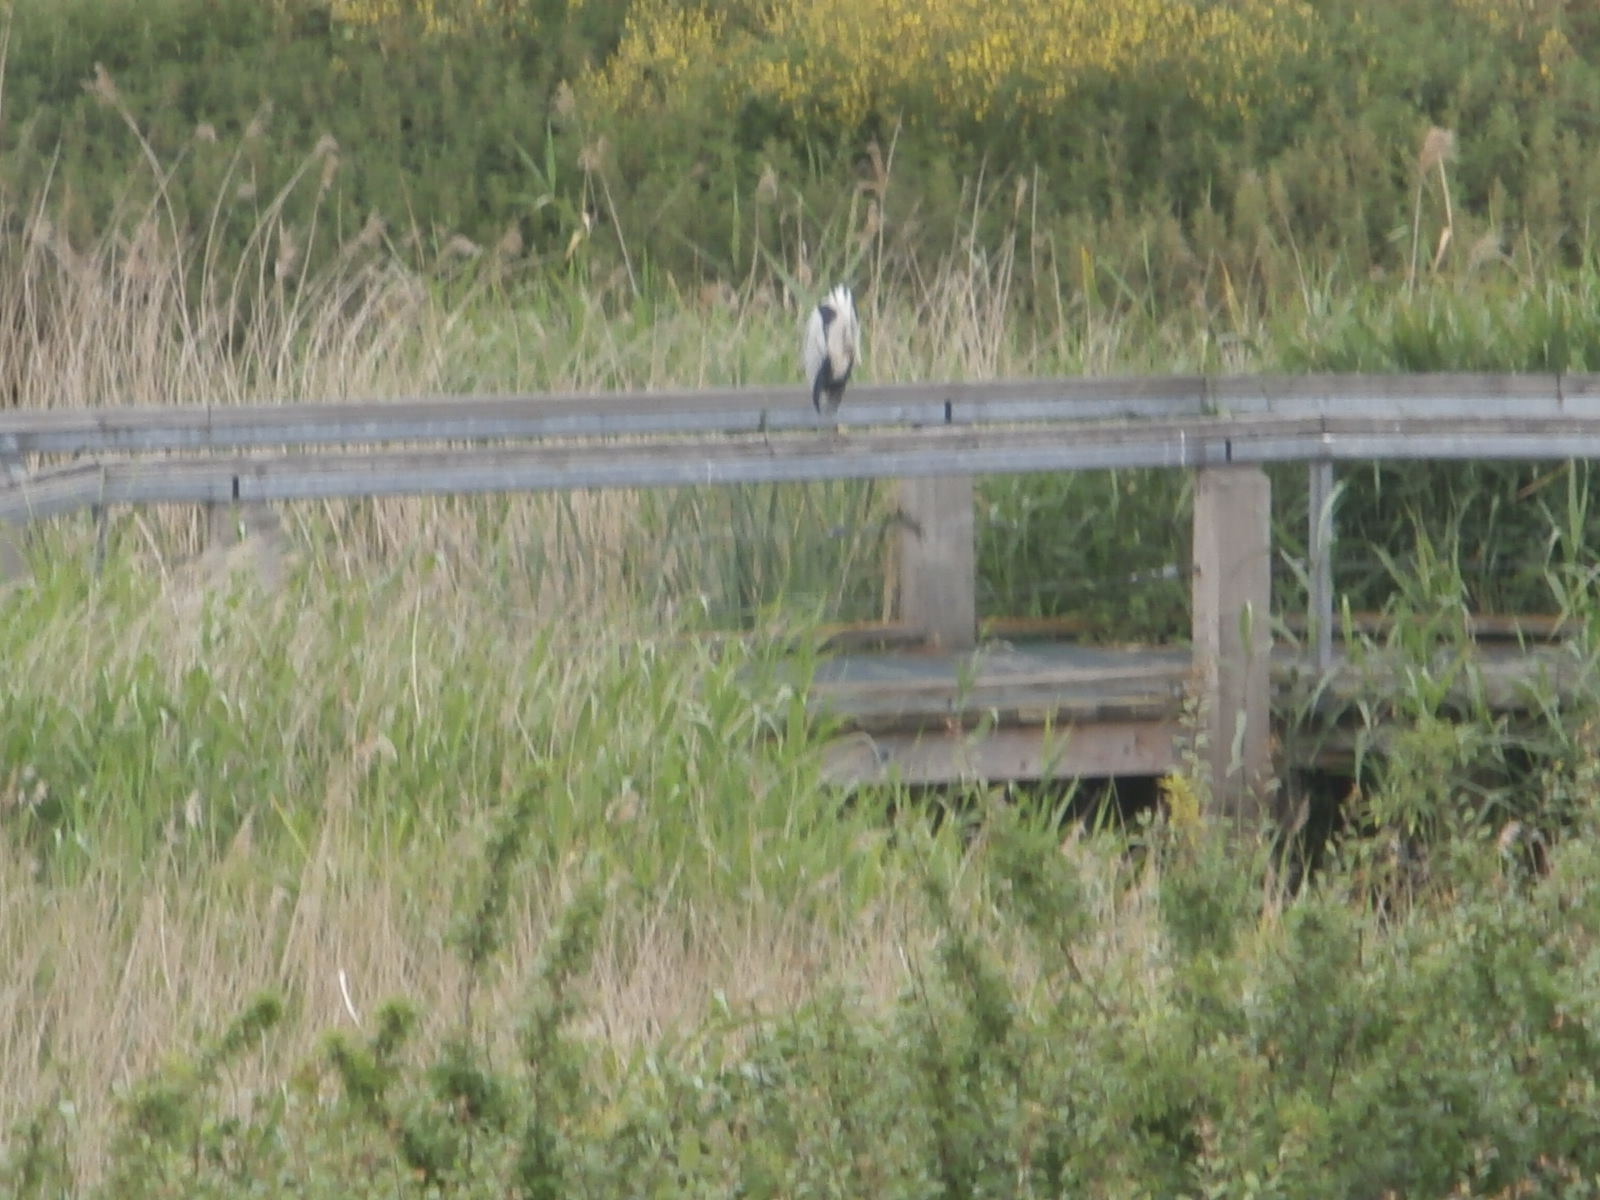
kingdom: Animalia
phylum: Chordata
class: Aves
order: Pelecaniformes
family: Ardeidae
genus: Ardea
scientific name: Ardea cinerea
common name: Grey heron
